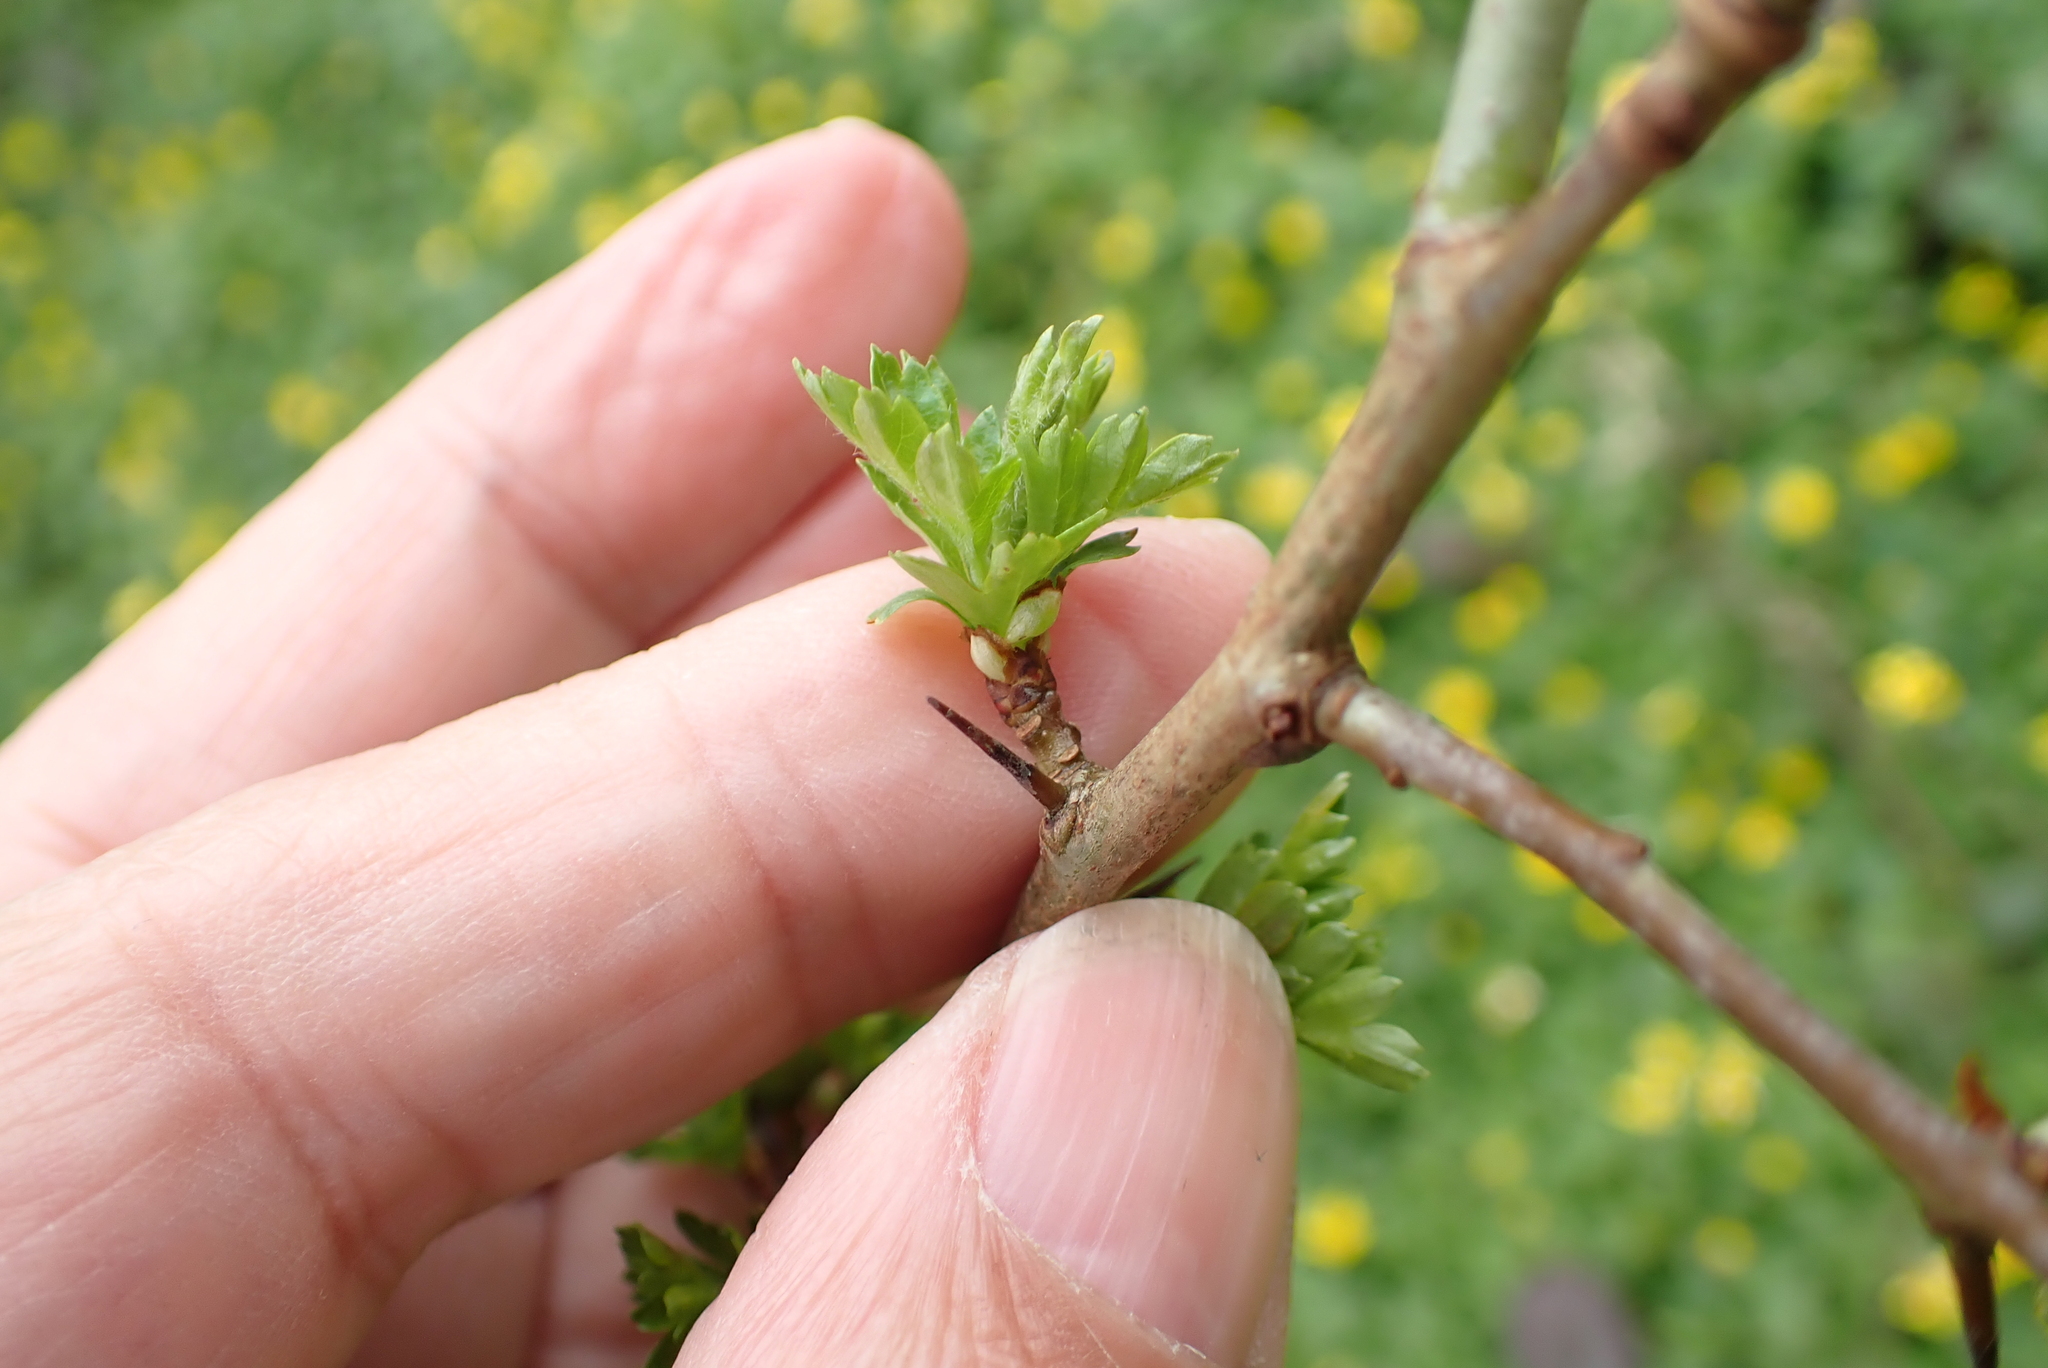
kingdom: Plantae
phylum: Tracheophyta
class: Magnoliopsida
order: Rosales
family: Rosaceae
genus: Crataegus
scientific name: Crataegus monogyna
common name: Hawthorn
